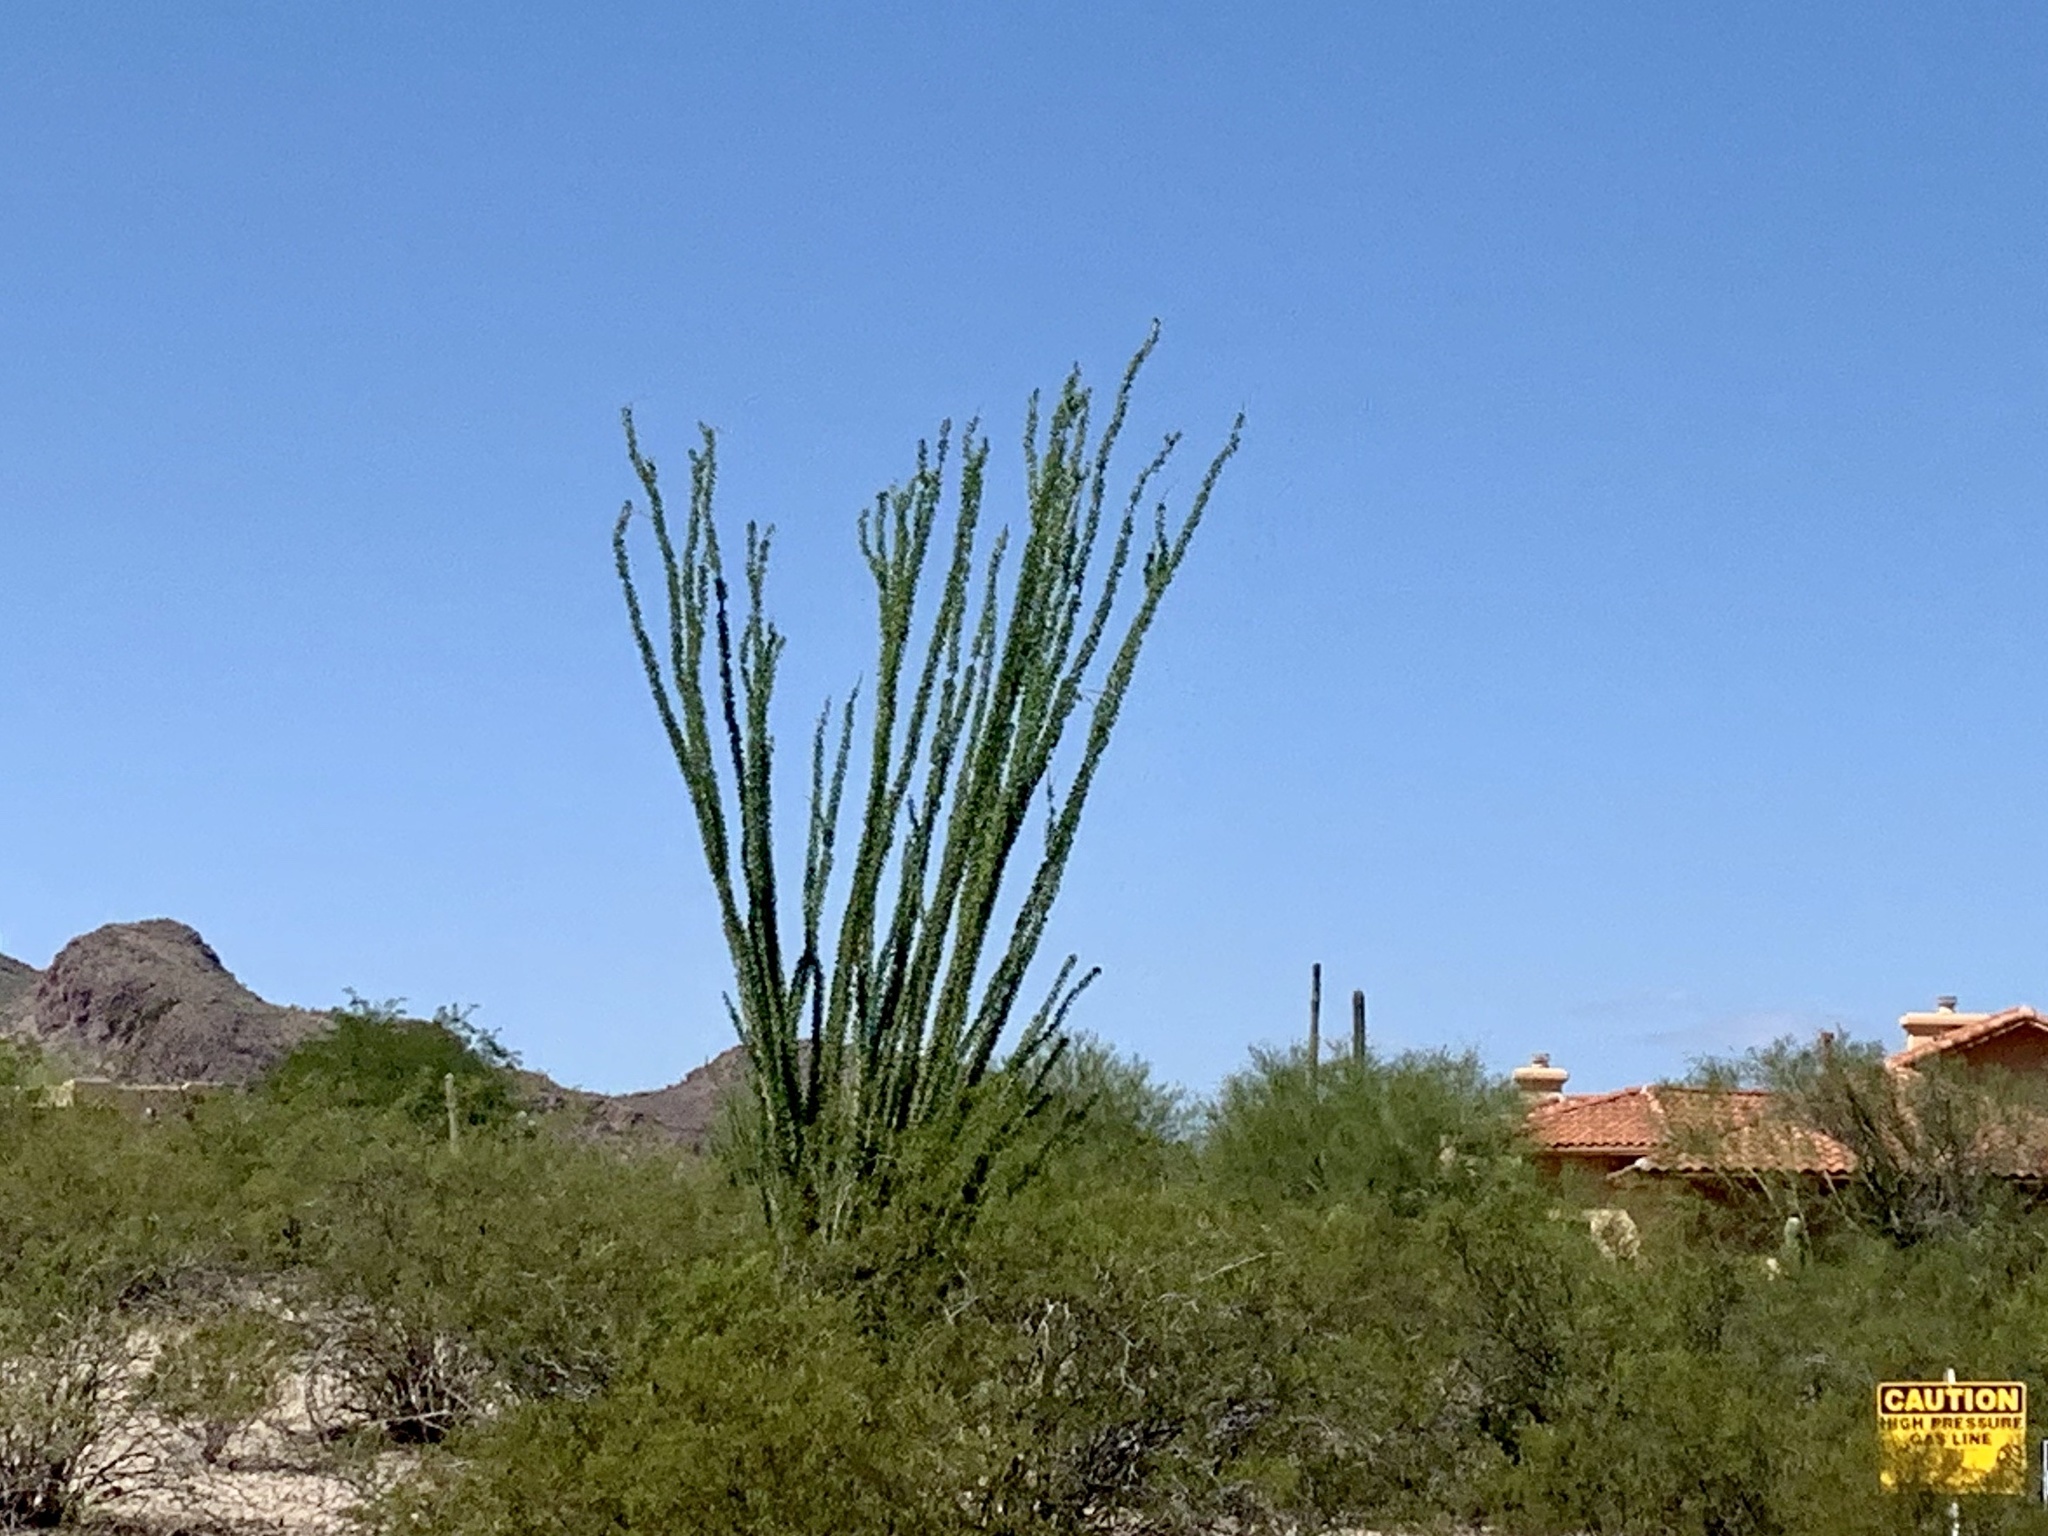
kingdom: Plantae
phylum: Tracheophyta
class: Magnoliopsida
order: Ericales
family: Fouquieriaceae
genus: Fouquieria
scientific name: Fouquieria splendens
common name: Vine-cactus
